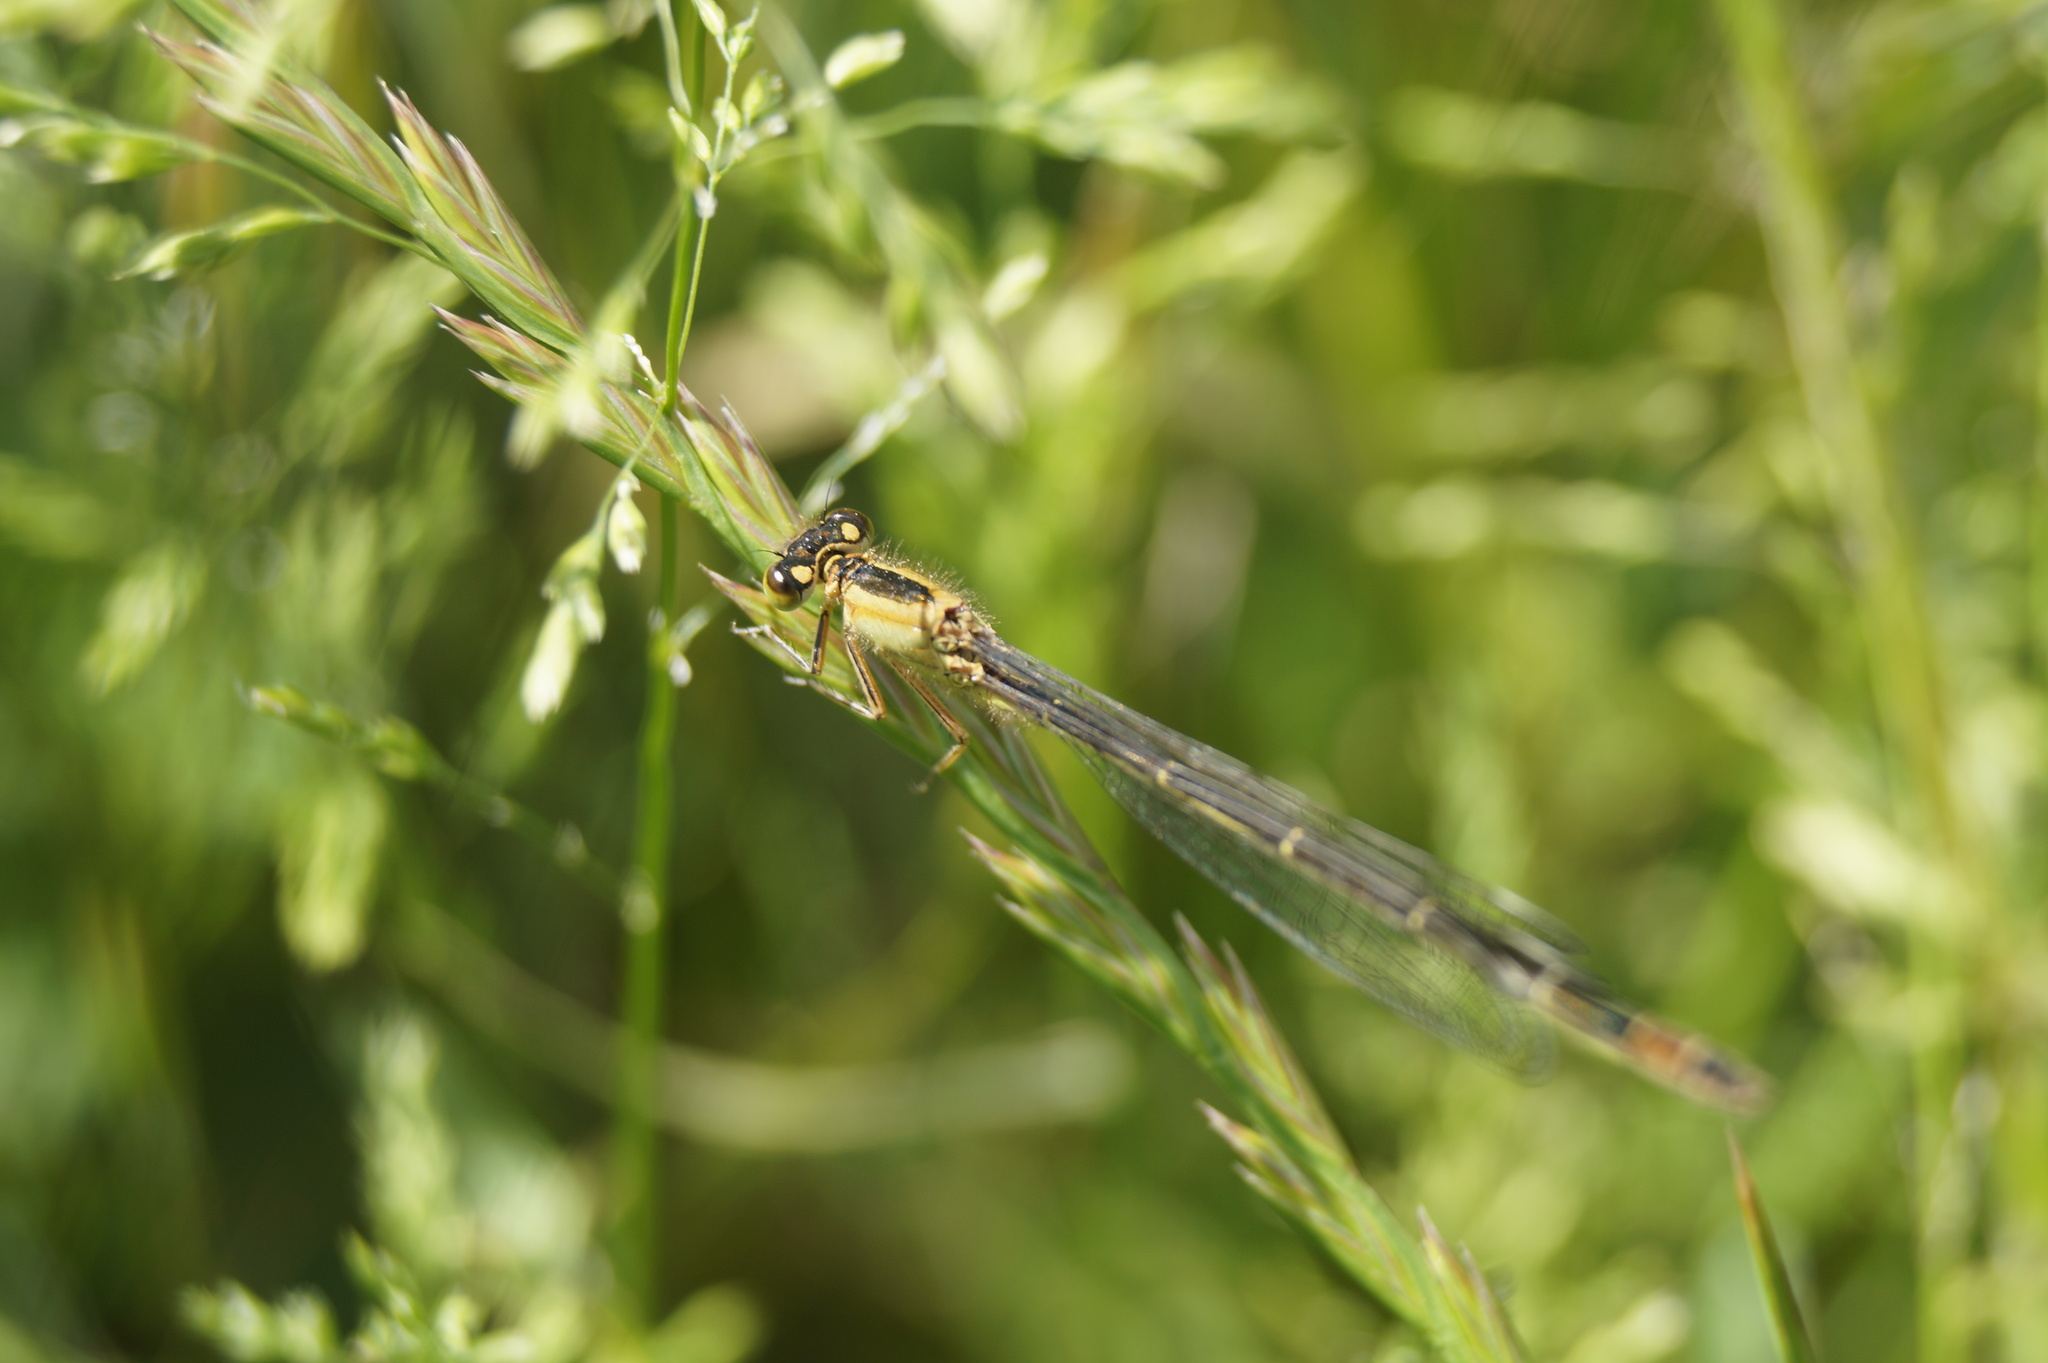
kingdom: Animalia
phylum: Arthropoda
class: Insecta
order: Odonata
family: Coenagrionidae
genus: Ischnura
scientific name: Ischnura elegans
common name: Blue-tailed damselfly
